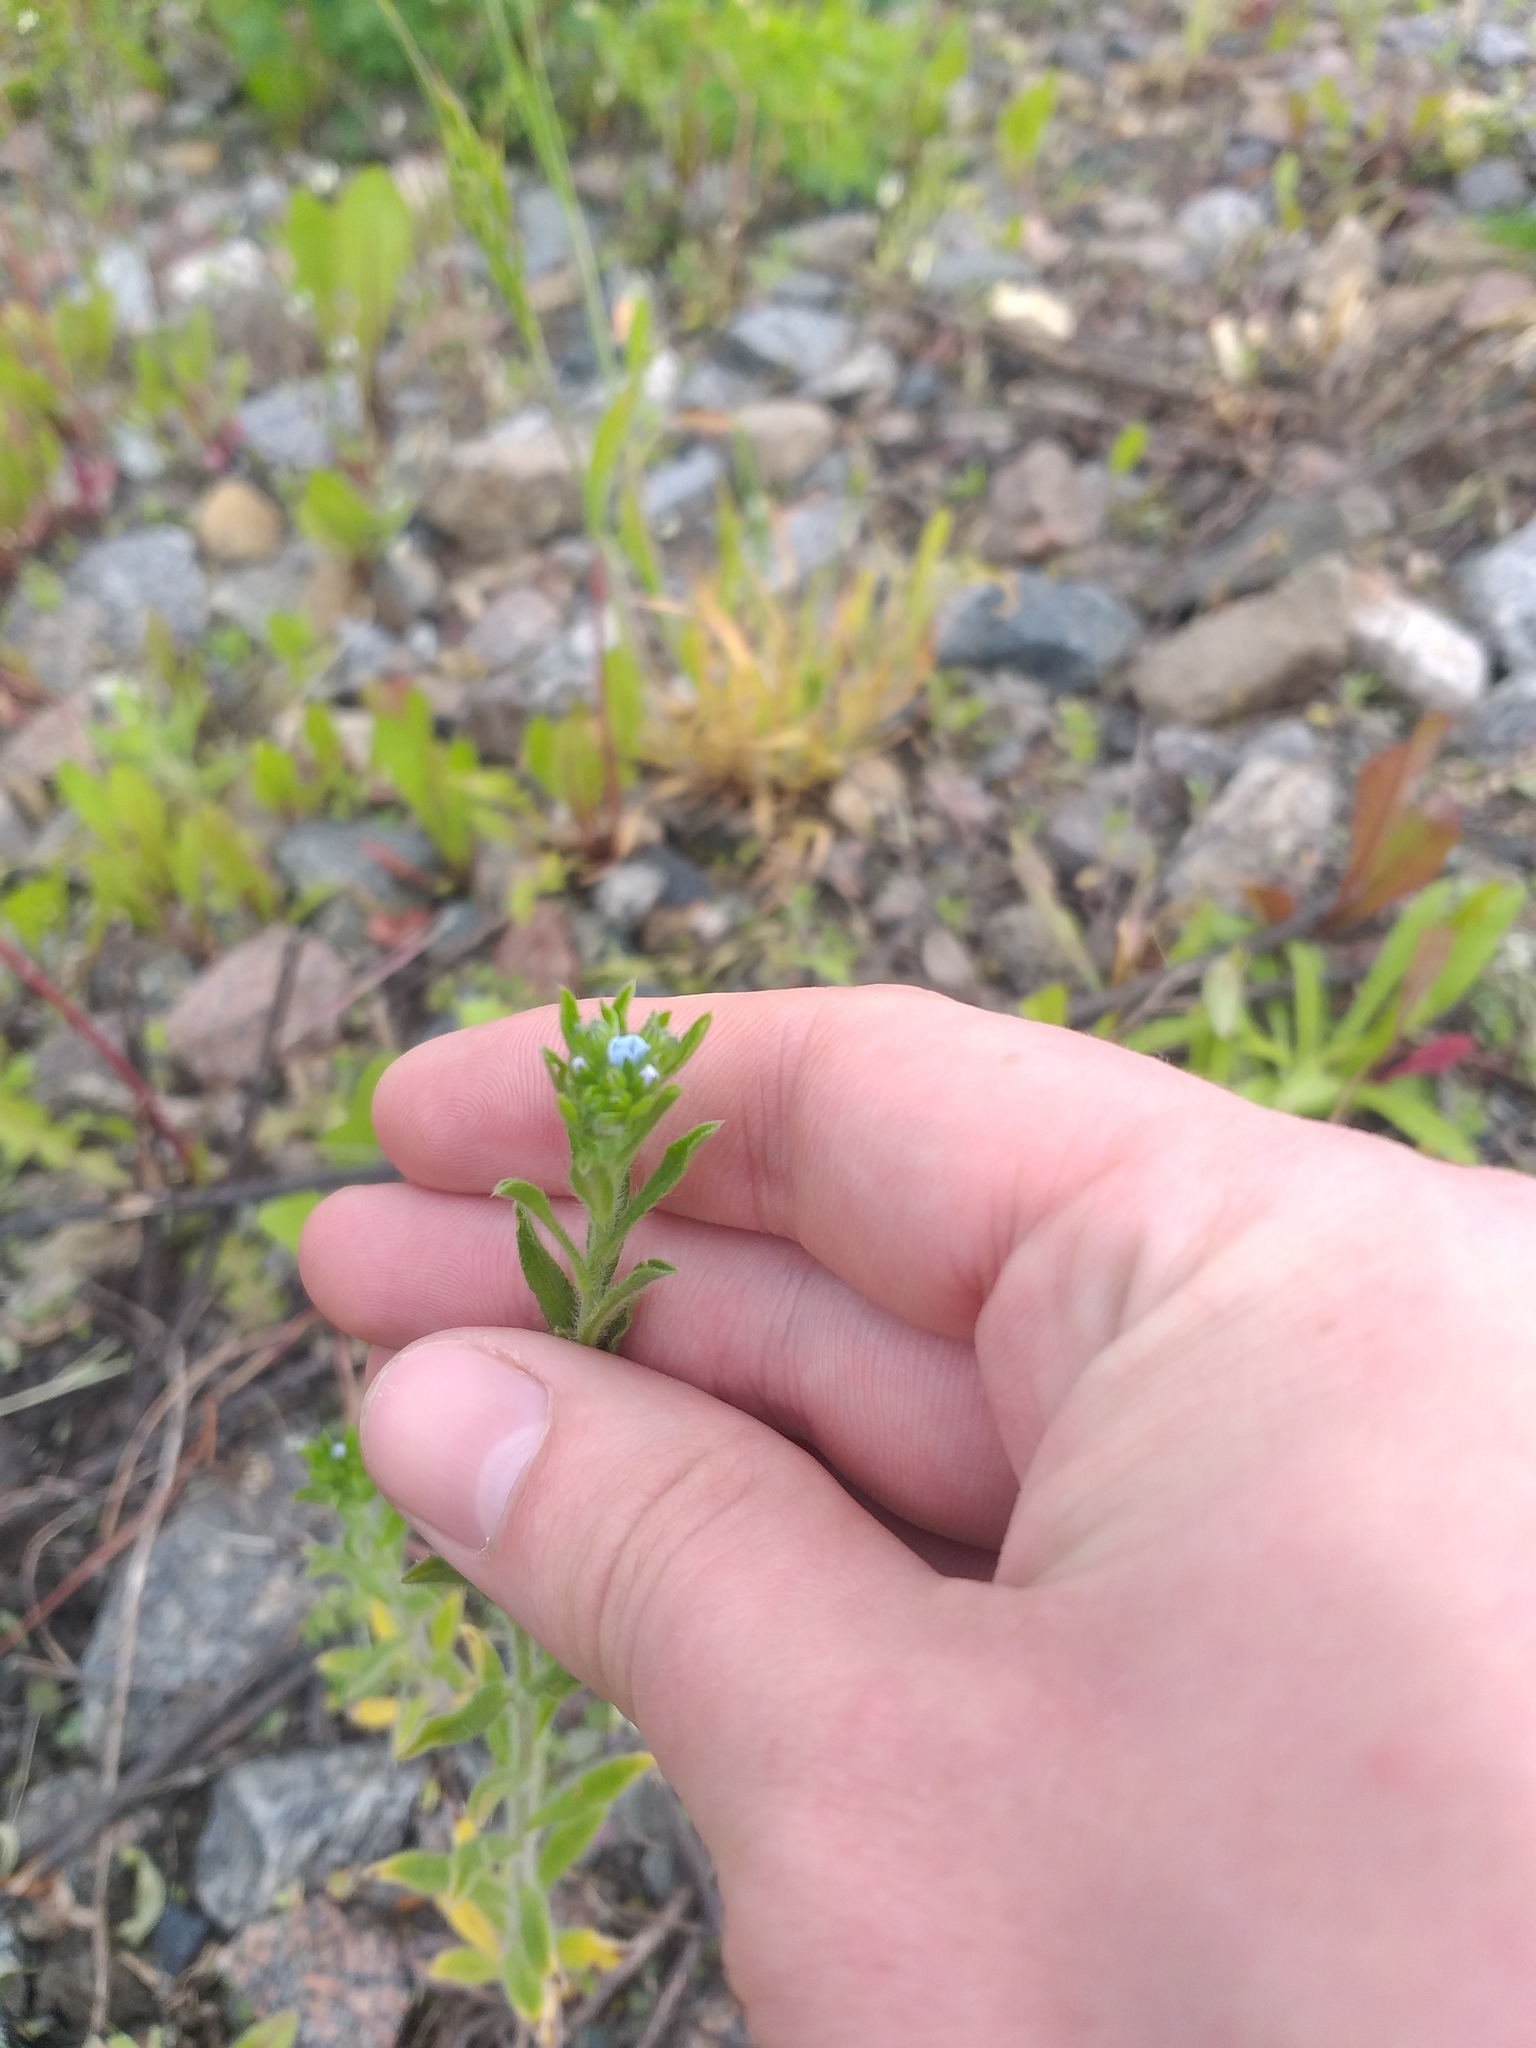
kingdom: Plantae
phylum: Tracheophyta
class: Magnoliopsida
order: Boraginales
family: Boraginaceae
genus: Lappula
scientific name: Lappula squarrosa
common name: European stickseed
